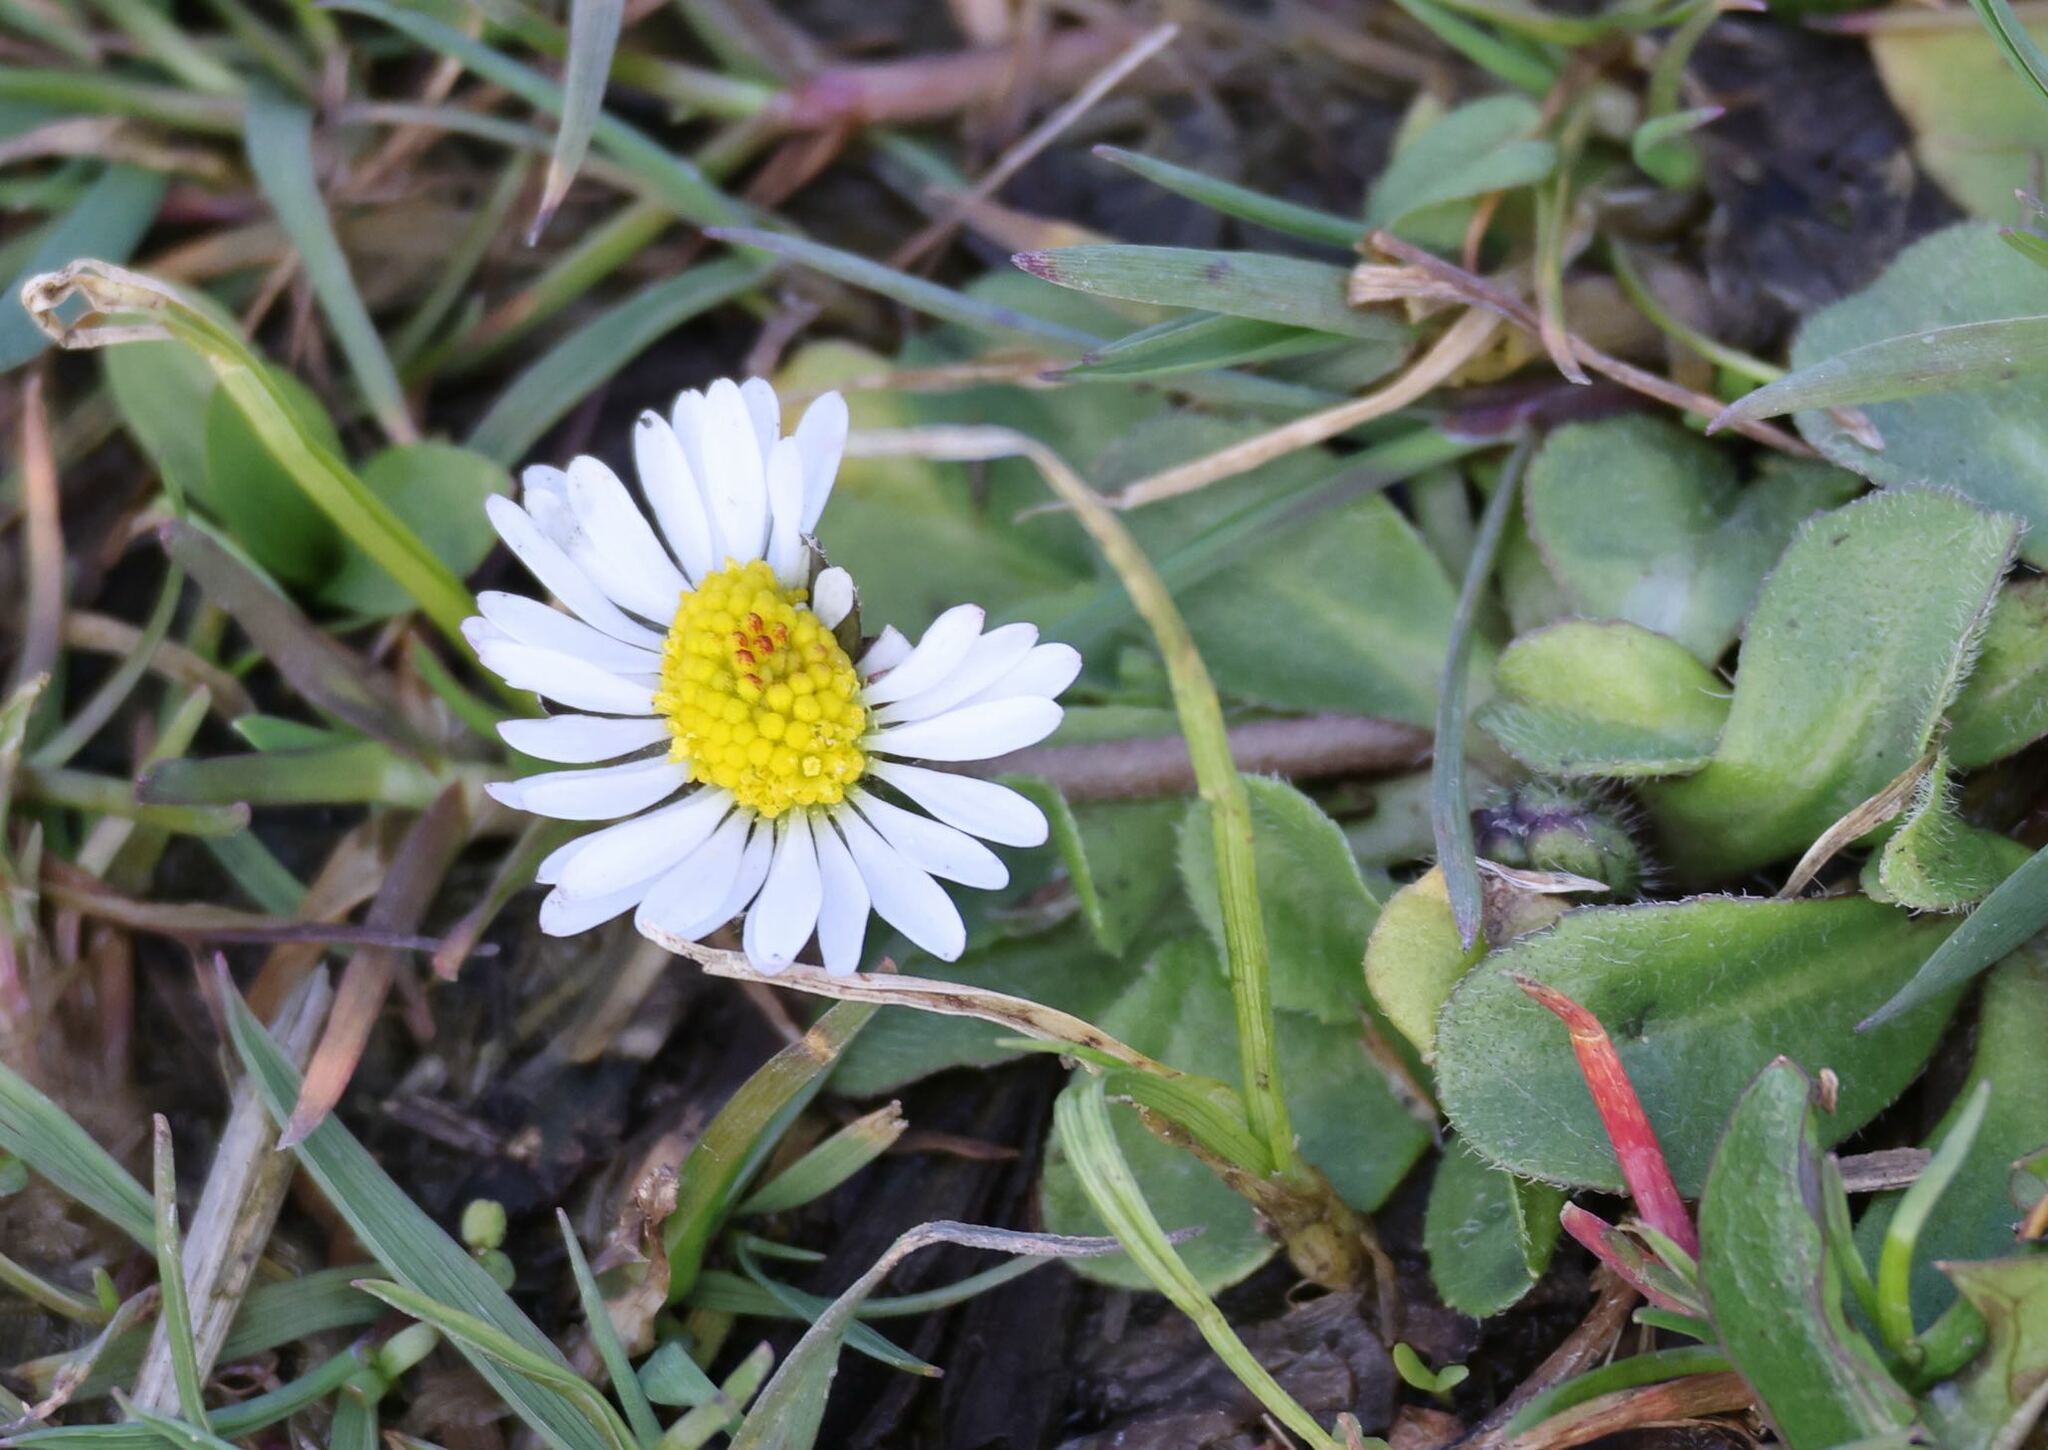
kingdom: Plantae
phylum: Tracheophyta
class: Magnoliopsida
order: Asterales
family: Asteraceae
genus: Bellis
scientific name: Bellis perennis
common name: Lawndaisy
